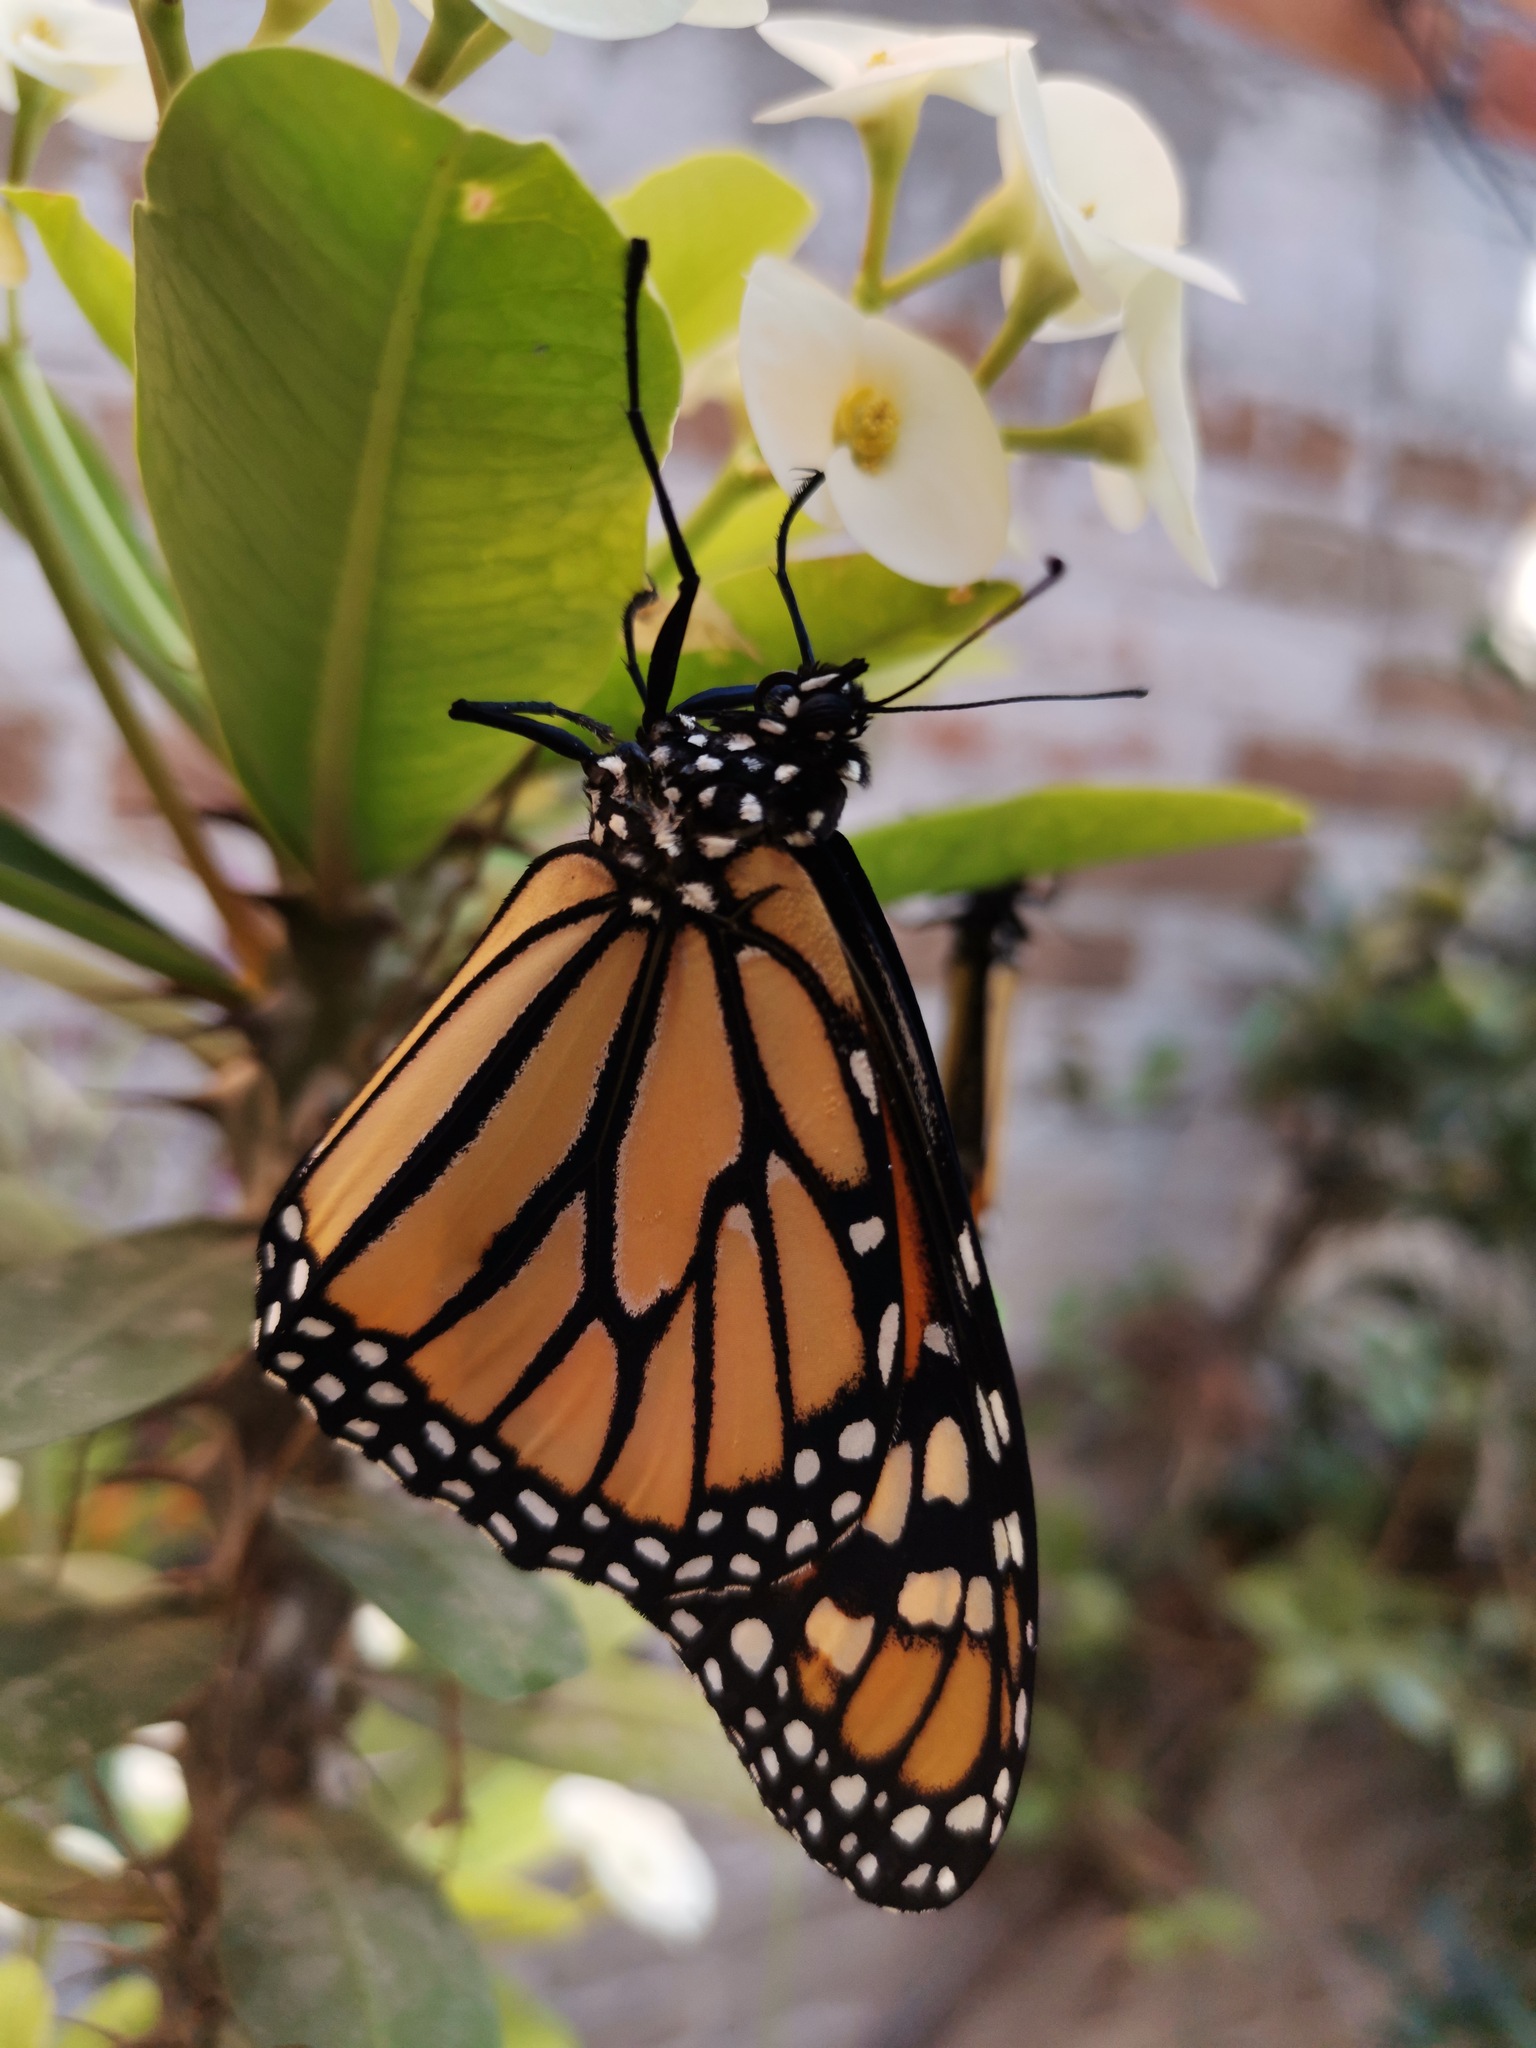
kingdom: Animalia
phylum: Arthropoda
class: Insecta
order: Lepidoptera
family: Nymphalidae
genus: Danaus
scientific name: Danaus plexippus
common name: Monarch
